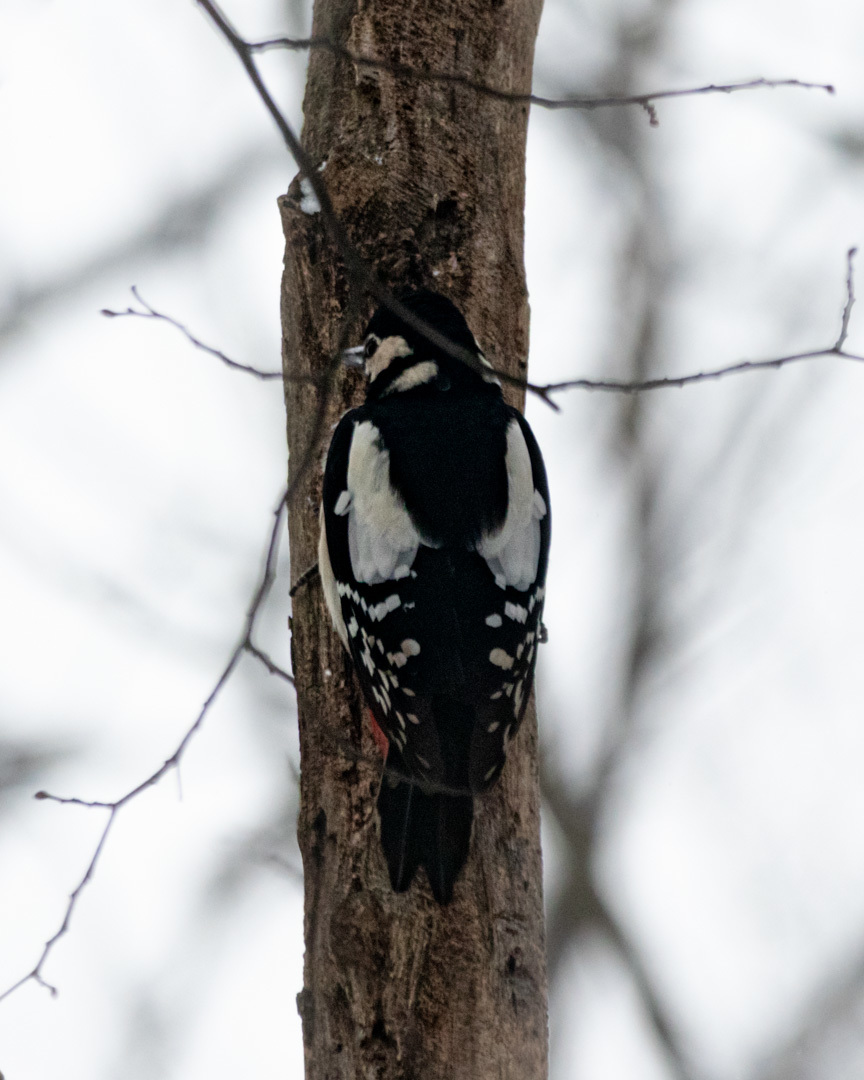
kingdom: Animalia
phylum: Chordata
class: Aves
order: Piciformes
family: Picidae
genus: Dendrocopos
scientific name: Dendrocopos major
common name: Great spotted woodpecker
